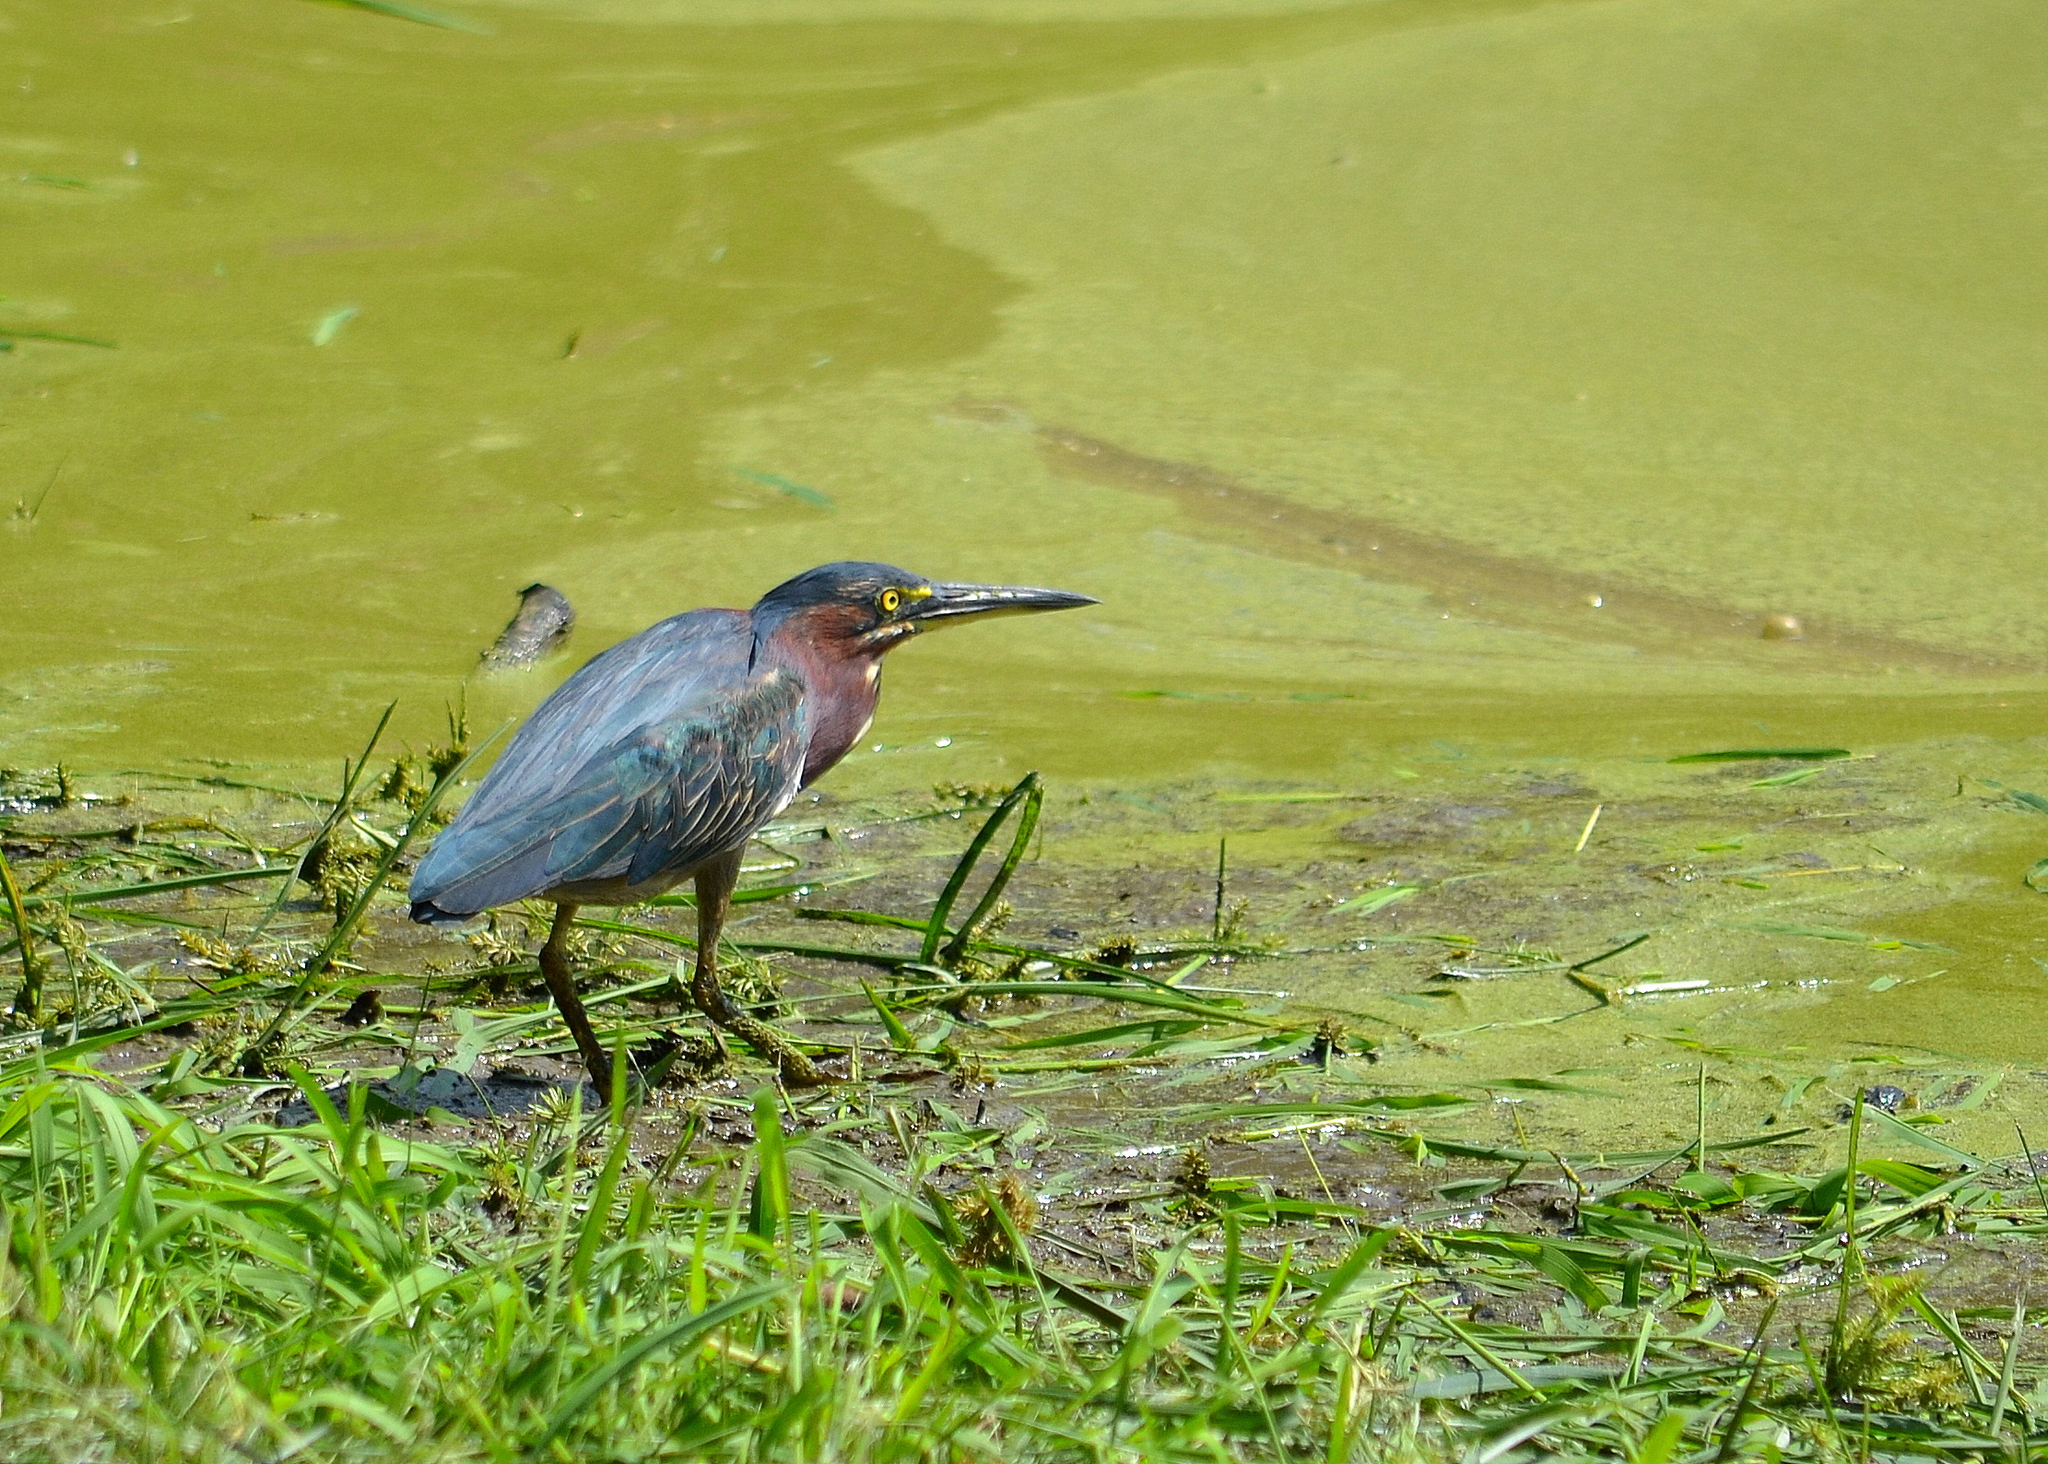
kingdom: Animalia
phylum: Chordata
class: Aves
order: Pelecaniformes
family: Ardeidae
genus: Butorides
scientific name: Butorides virescens
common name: Green heron
